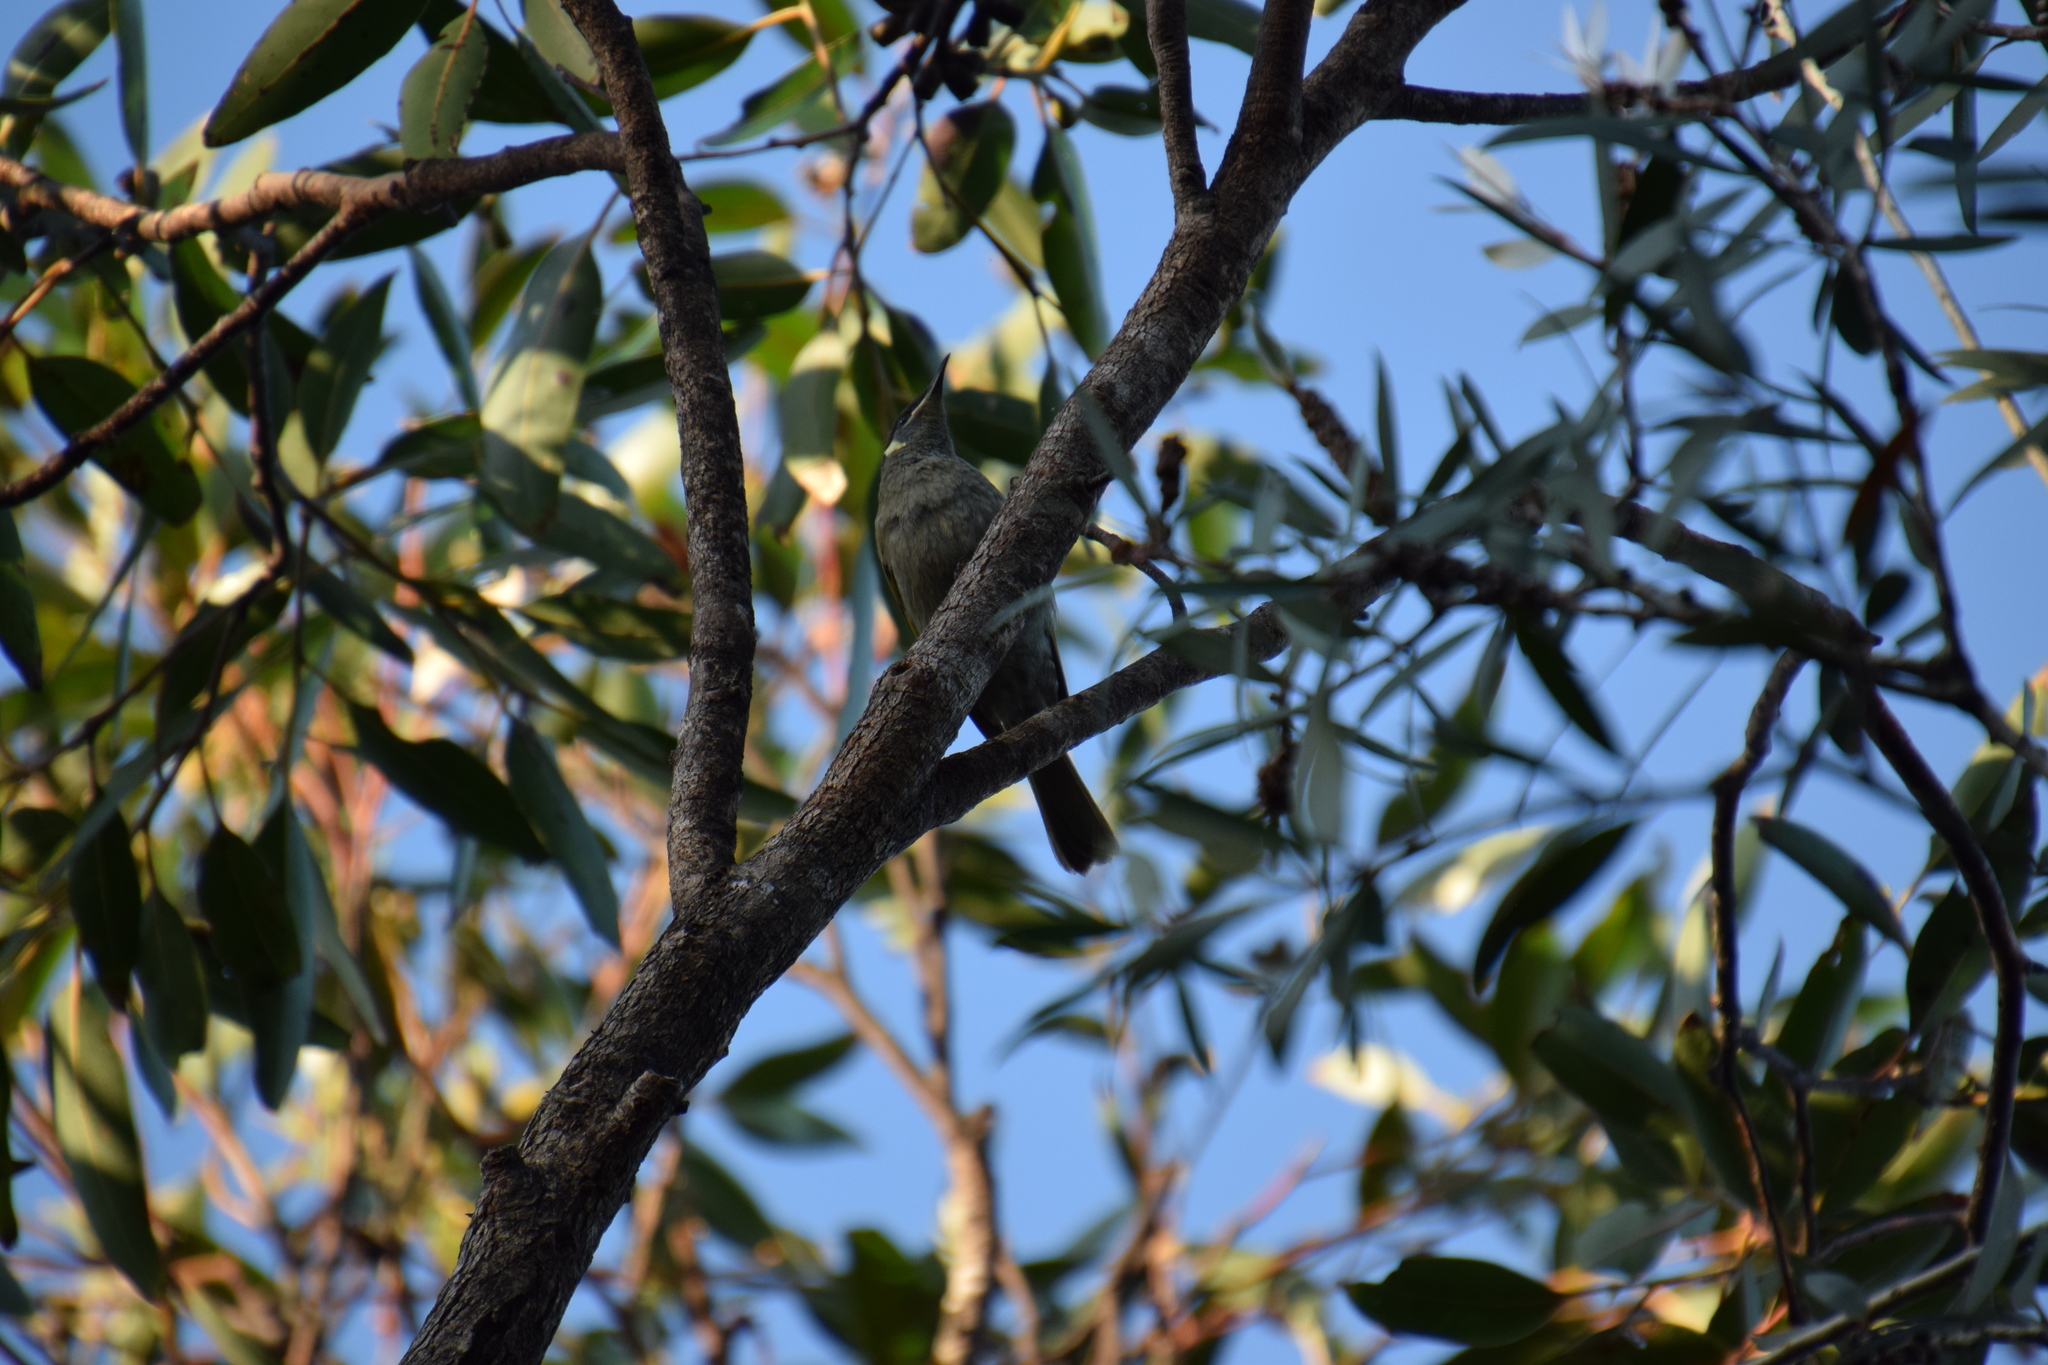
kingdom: Animalia
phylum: Chordata
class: Aves
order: Passeriformes
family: Meliphagidae
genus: Meliphaga
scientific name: Meliphaga lewinii
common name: Lewin's honeyeater
